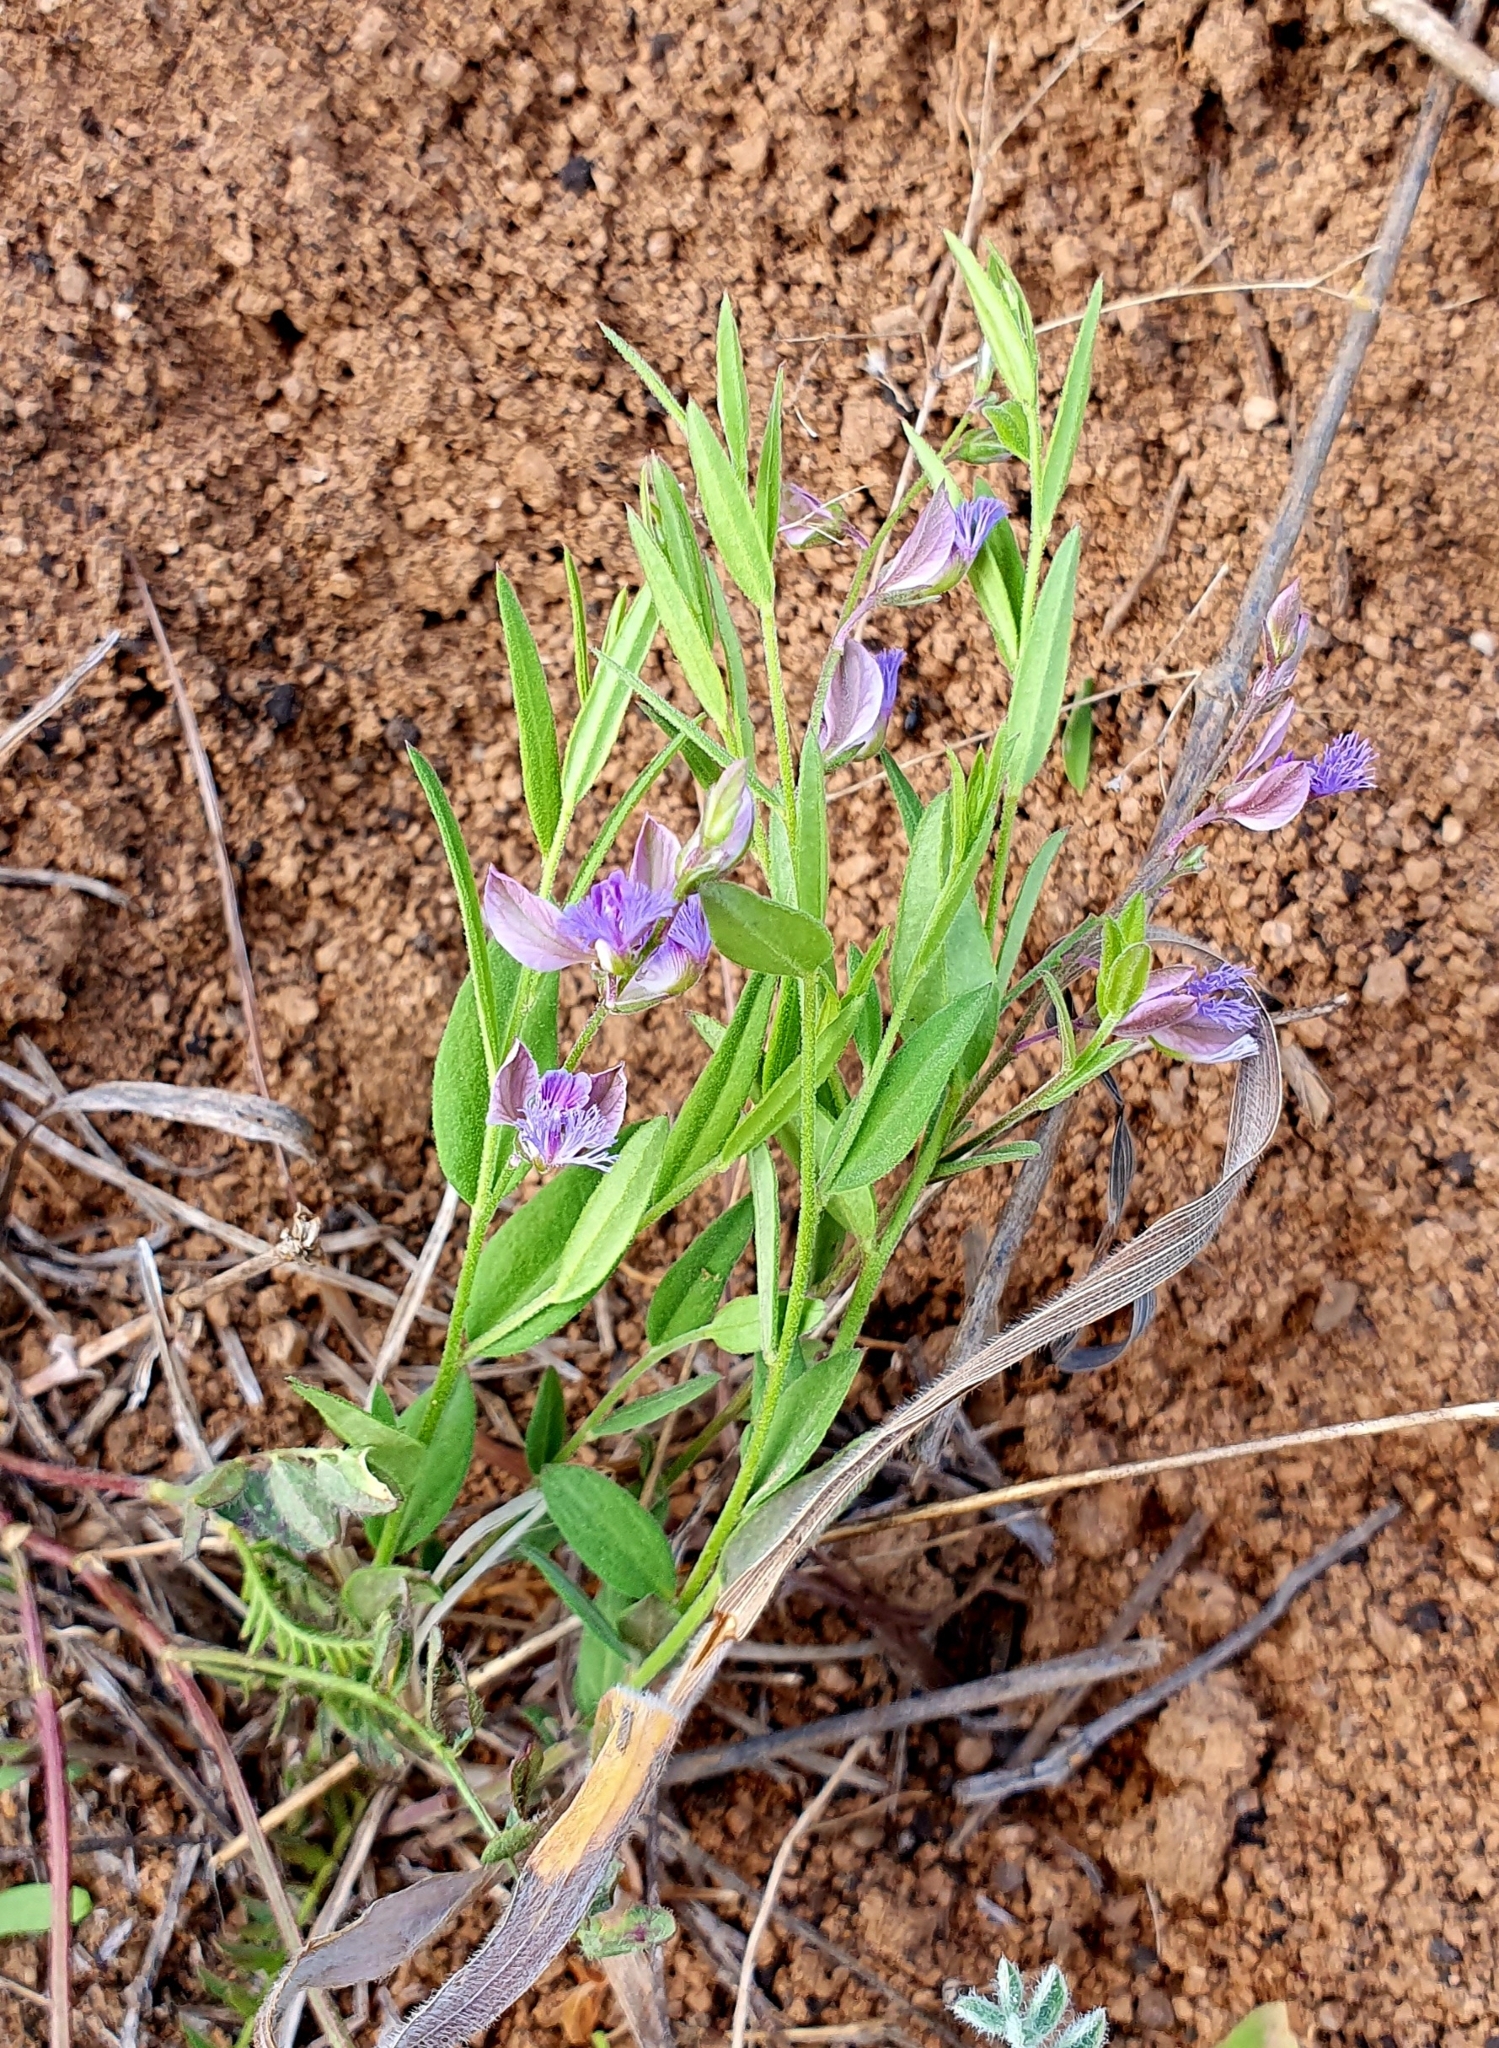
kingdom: Plantae
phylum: Tracheophyta
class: Magnoliopsida
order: Fabales
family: Polygalaceae
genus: Polygala
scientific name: Polygala sibirica
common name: Siberian polygala
